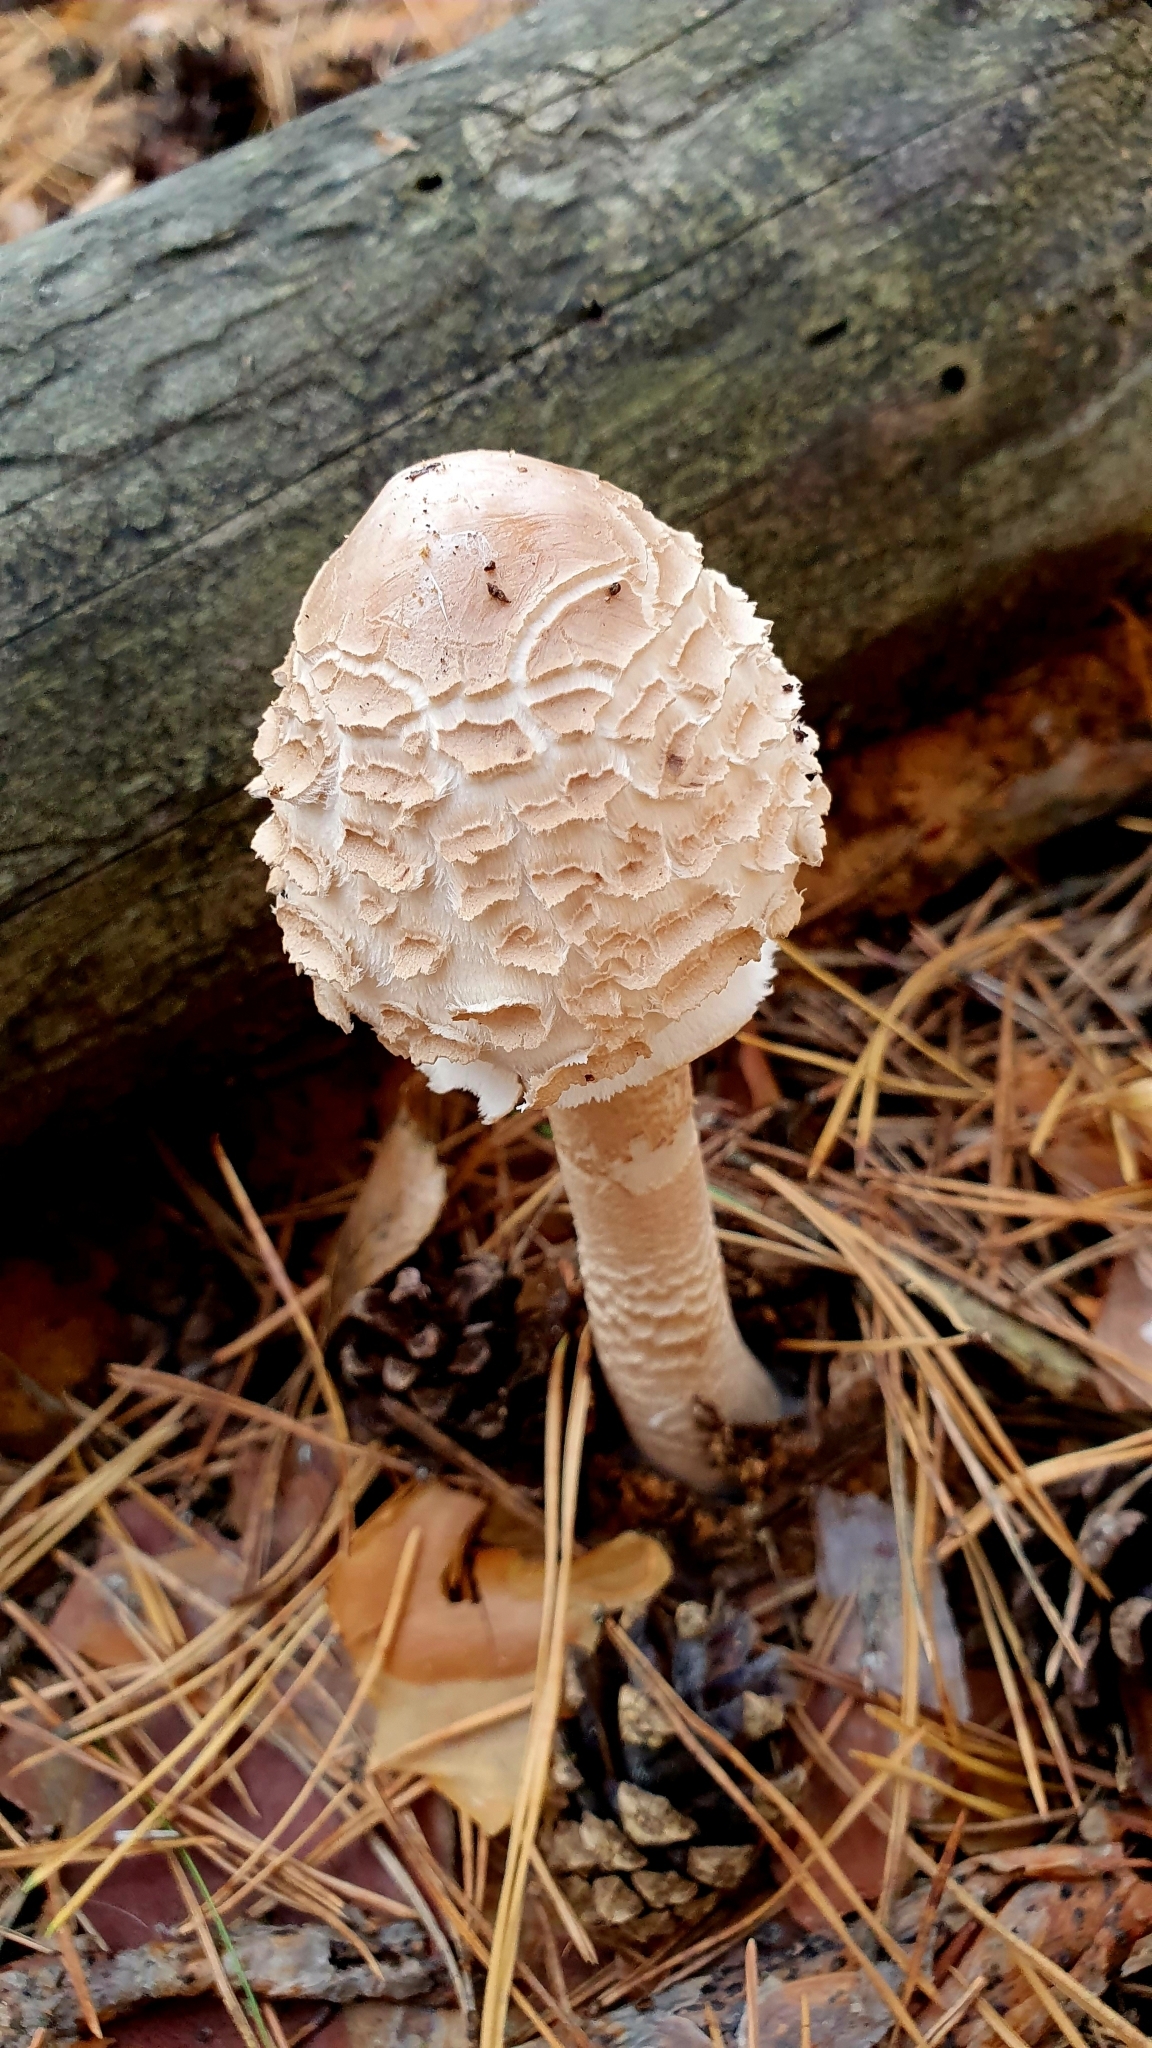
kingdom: Fungi
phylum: Basidiomycota
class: Agaricomycetes
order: Agaricales
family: Agaricaceae
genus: Macrolepiota
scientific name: Macrolepiota procera
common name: Parasol
